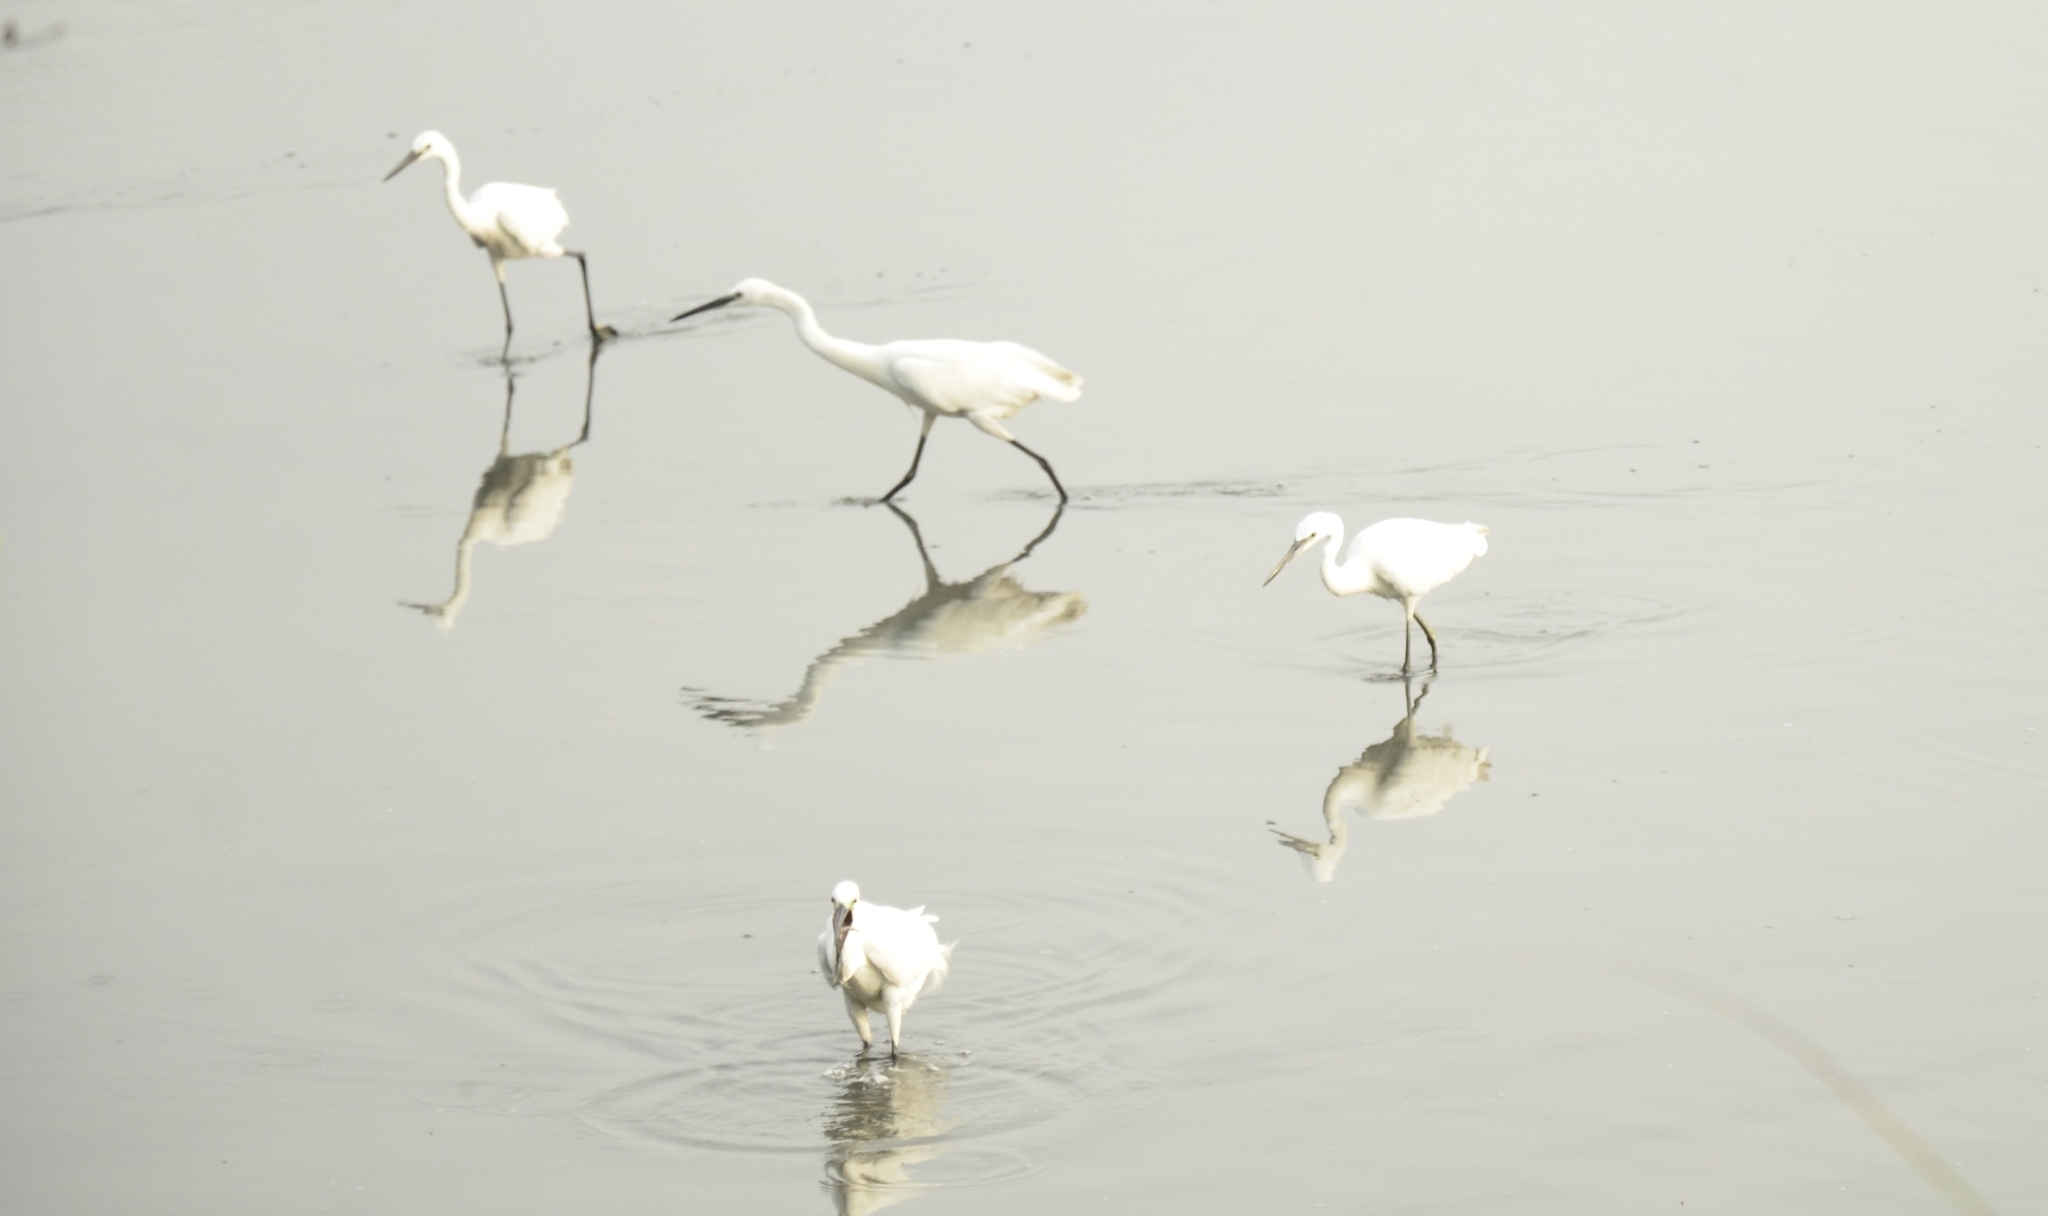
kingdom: Animalia
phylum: Chordata
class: Aves
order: Pelecaniformes
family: Ardeidae
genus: Egretta
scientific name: Egretta garzetta
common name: Little egret
